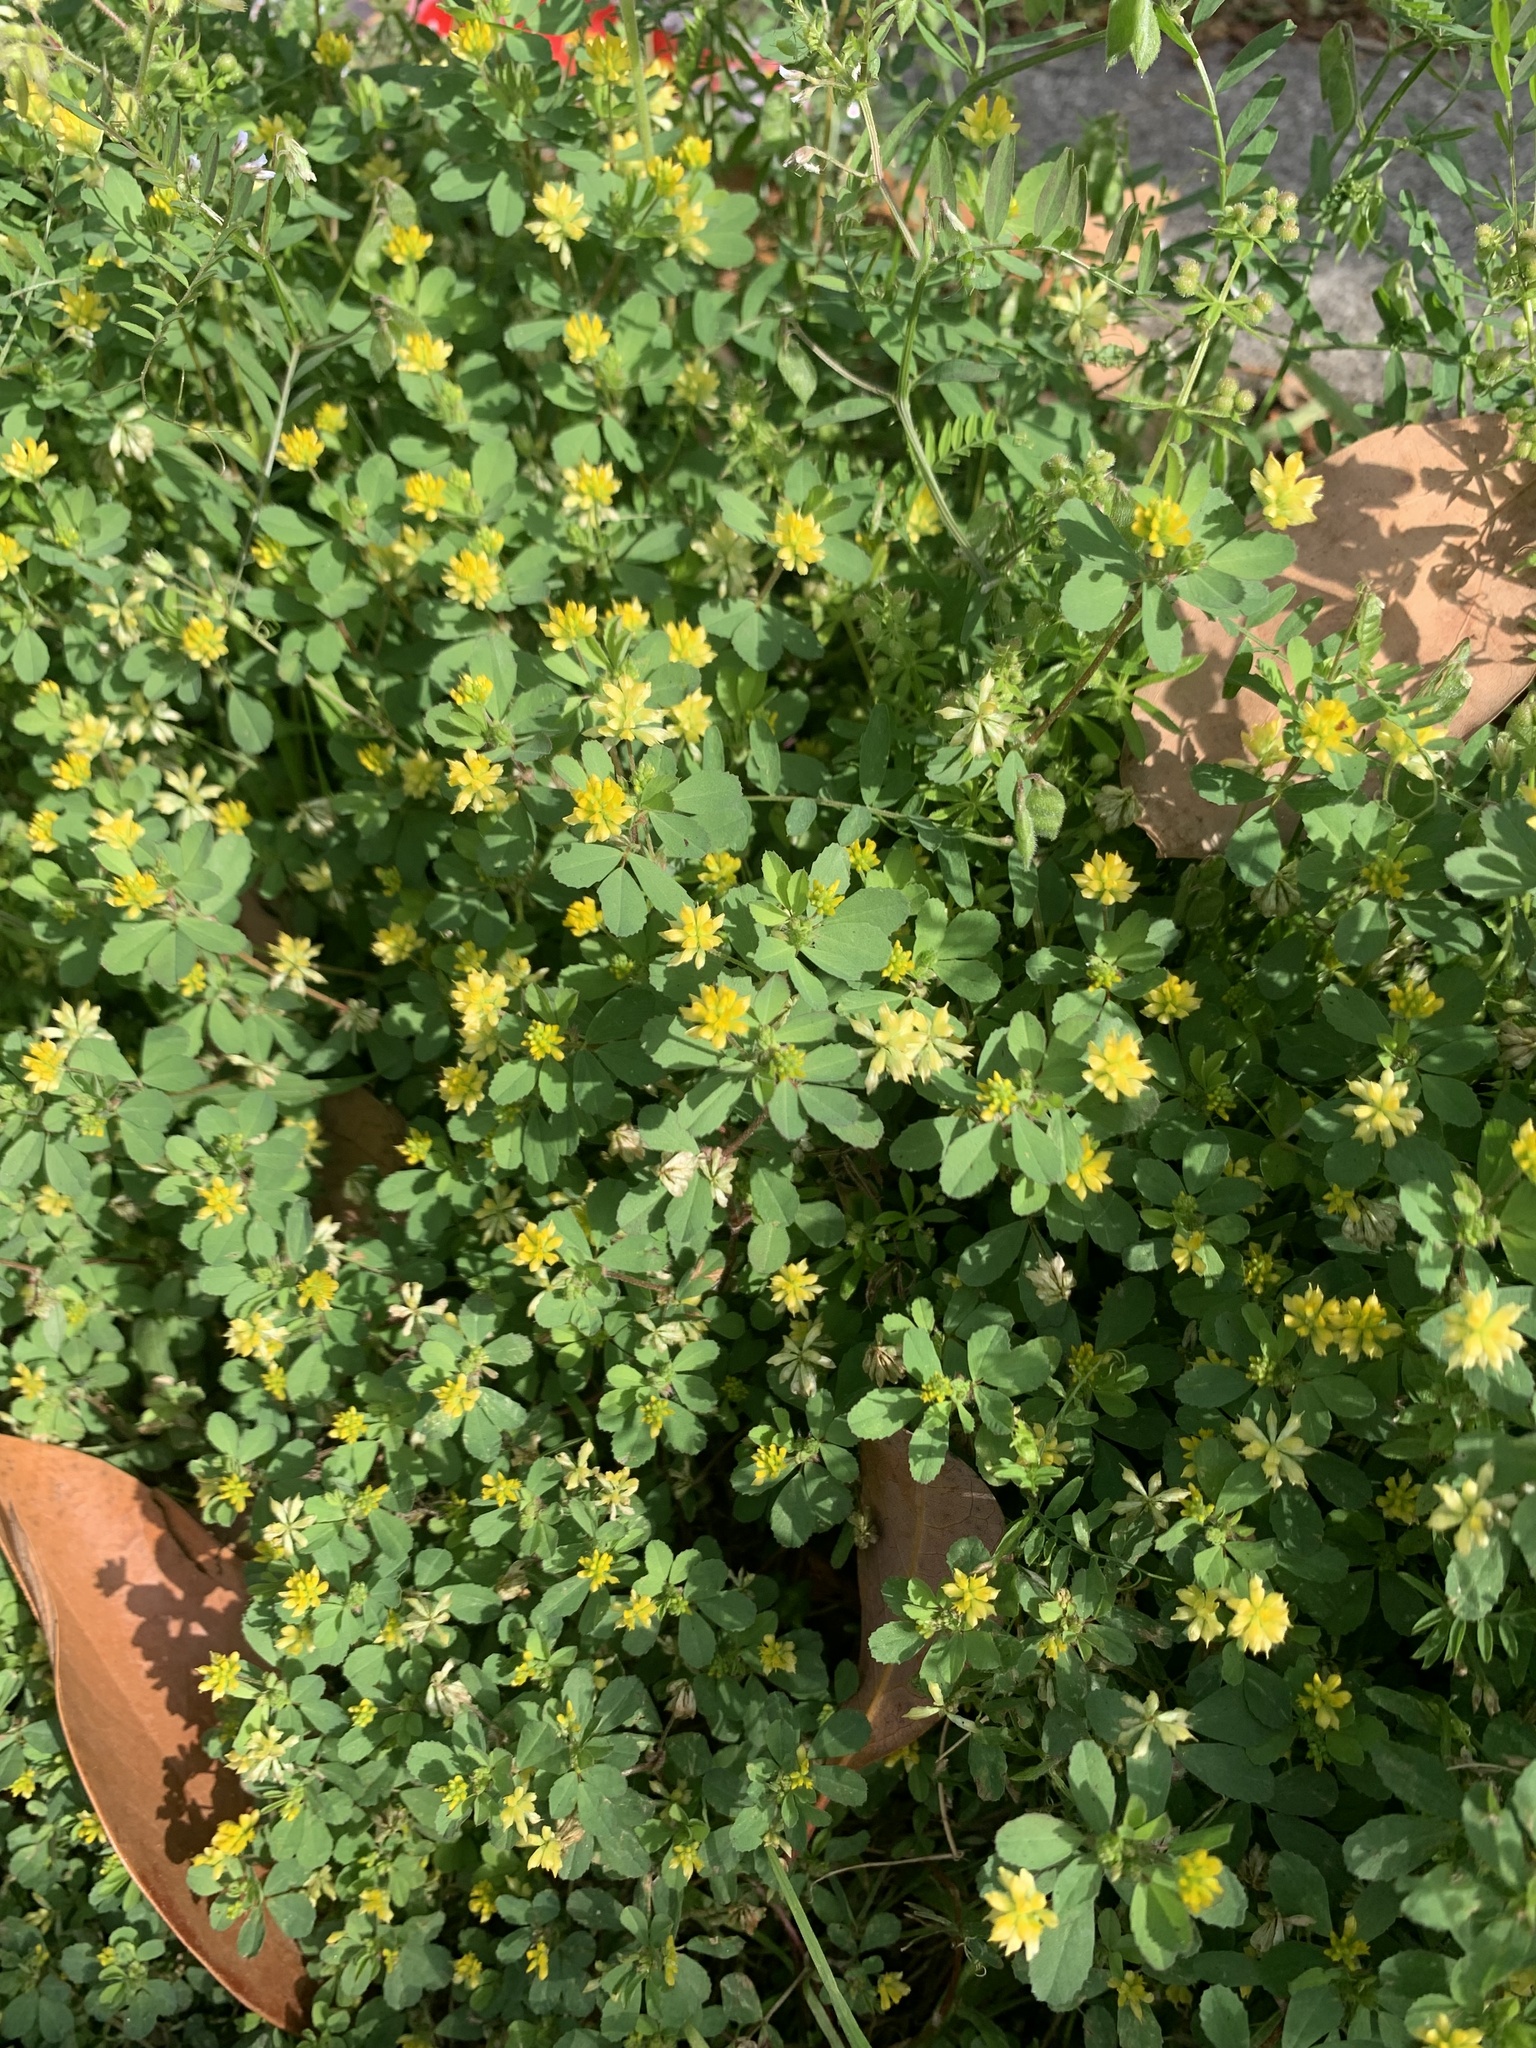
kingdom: Plantae
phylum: Tracheophyta
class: Magnoliopsida
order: Fabales
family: Fabaceae
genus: Trifolium
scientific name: Trifolium dubium
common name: Suckling clover
